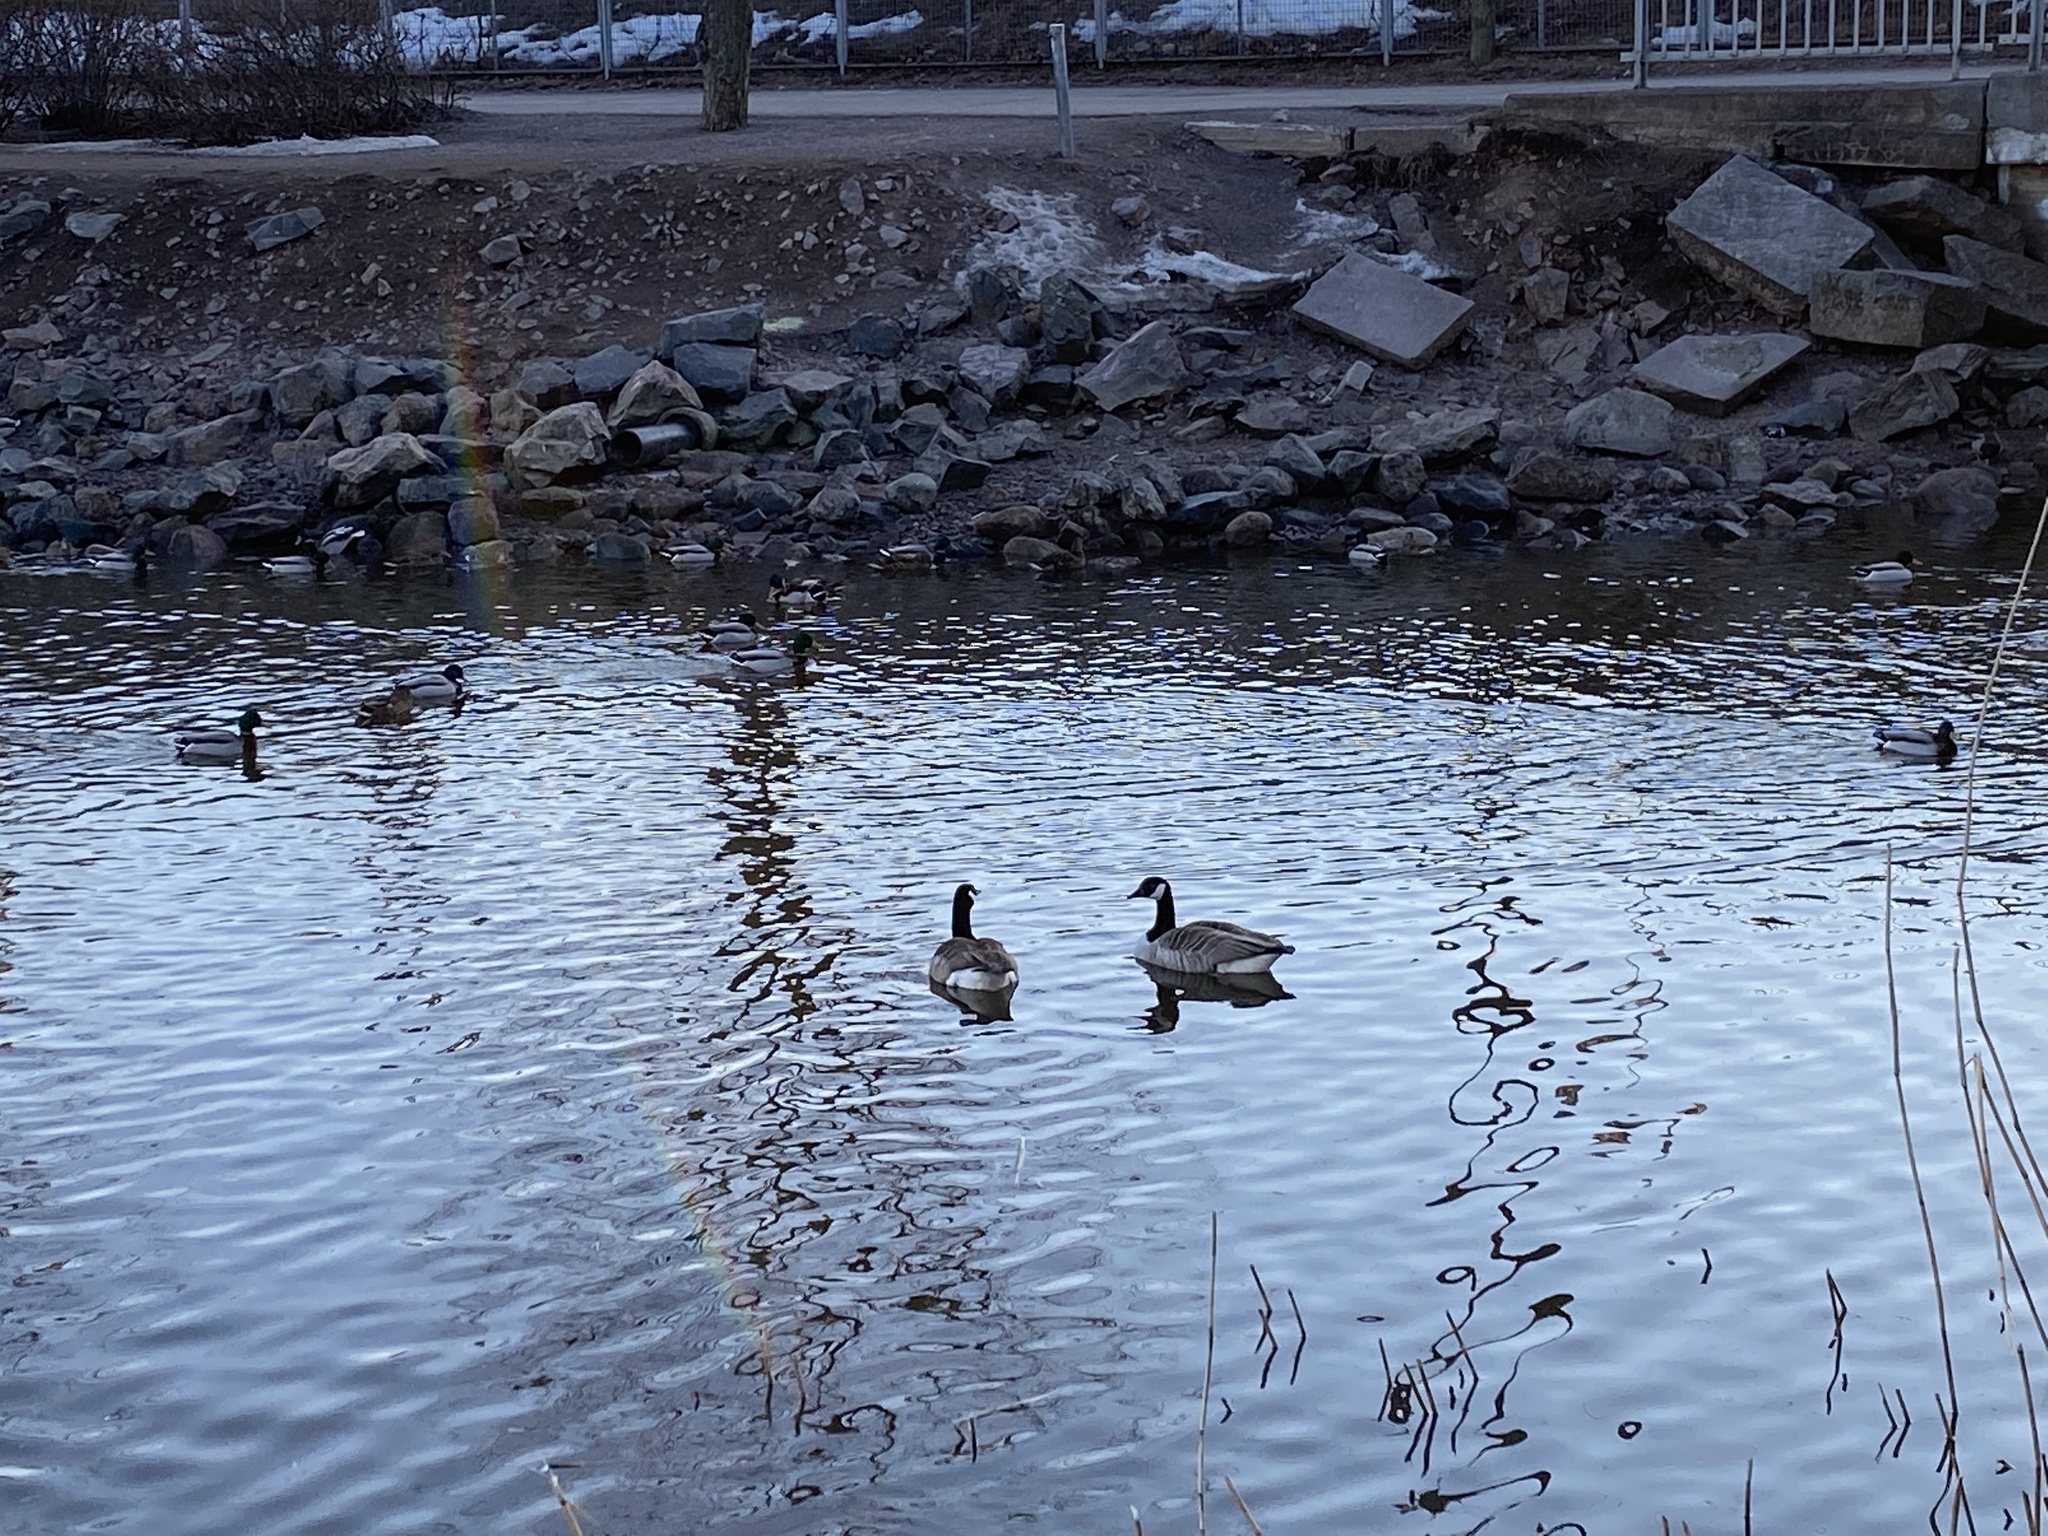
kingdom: Animalia
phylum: Chordata
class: Aves
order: Anseriformes
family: Anatidae
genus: Branta
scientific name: Branta canadensis
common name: Canada goose
